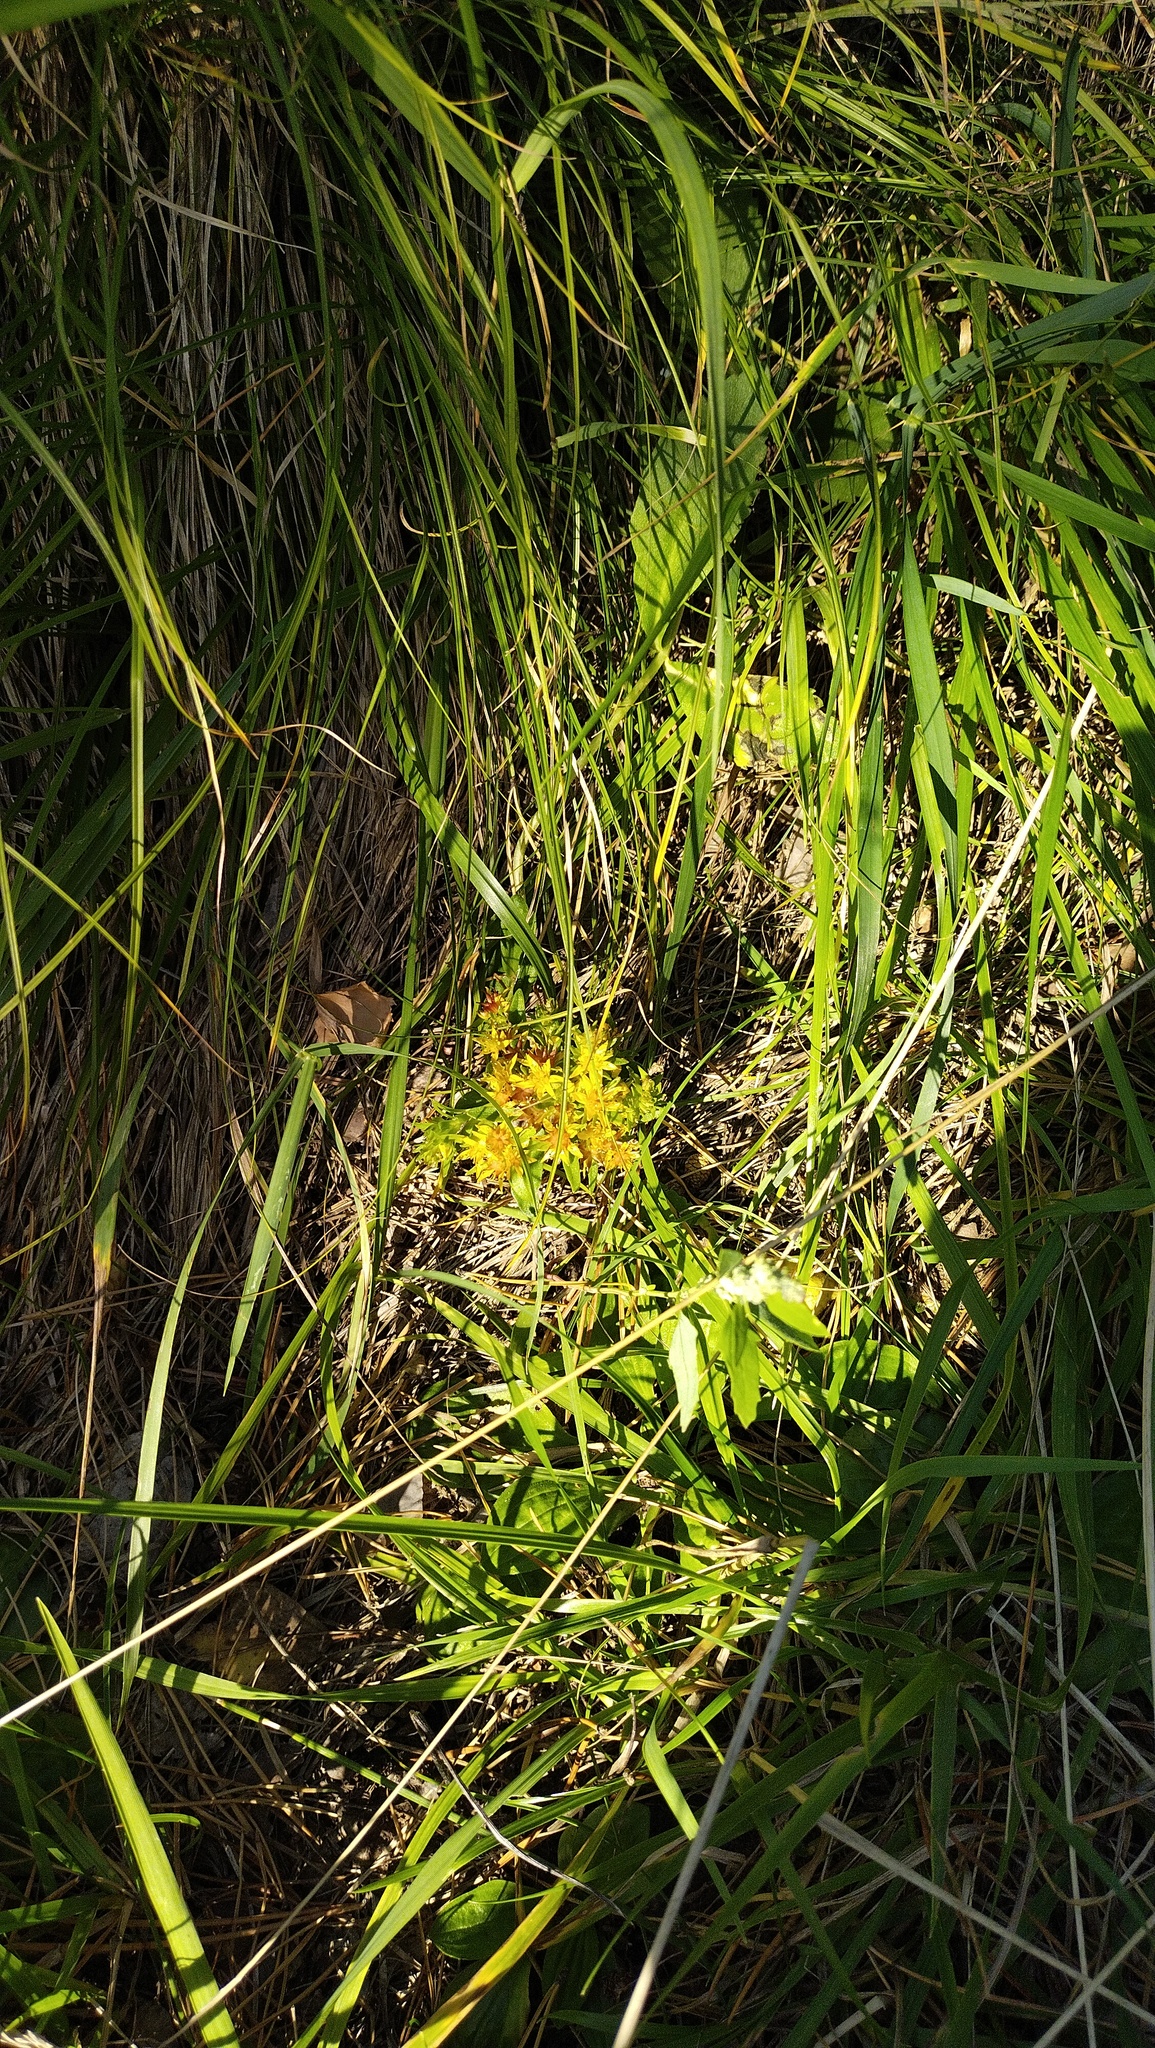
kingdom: Plantae
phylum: Tracheophyta
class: Magnoliopsida
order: Saxifragales
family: Crassulaceae
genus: Phedimus
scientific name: Phedimus hybridus
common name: Hybrid stonecrop
